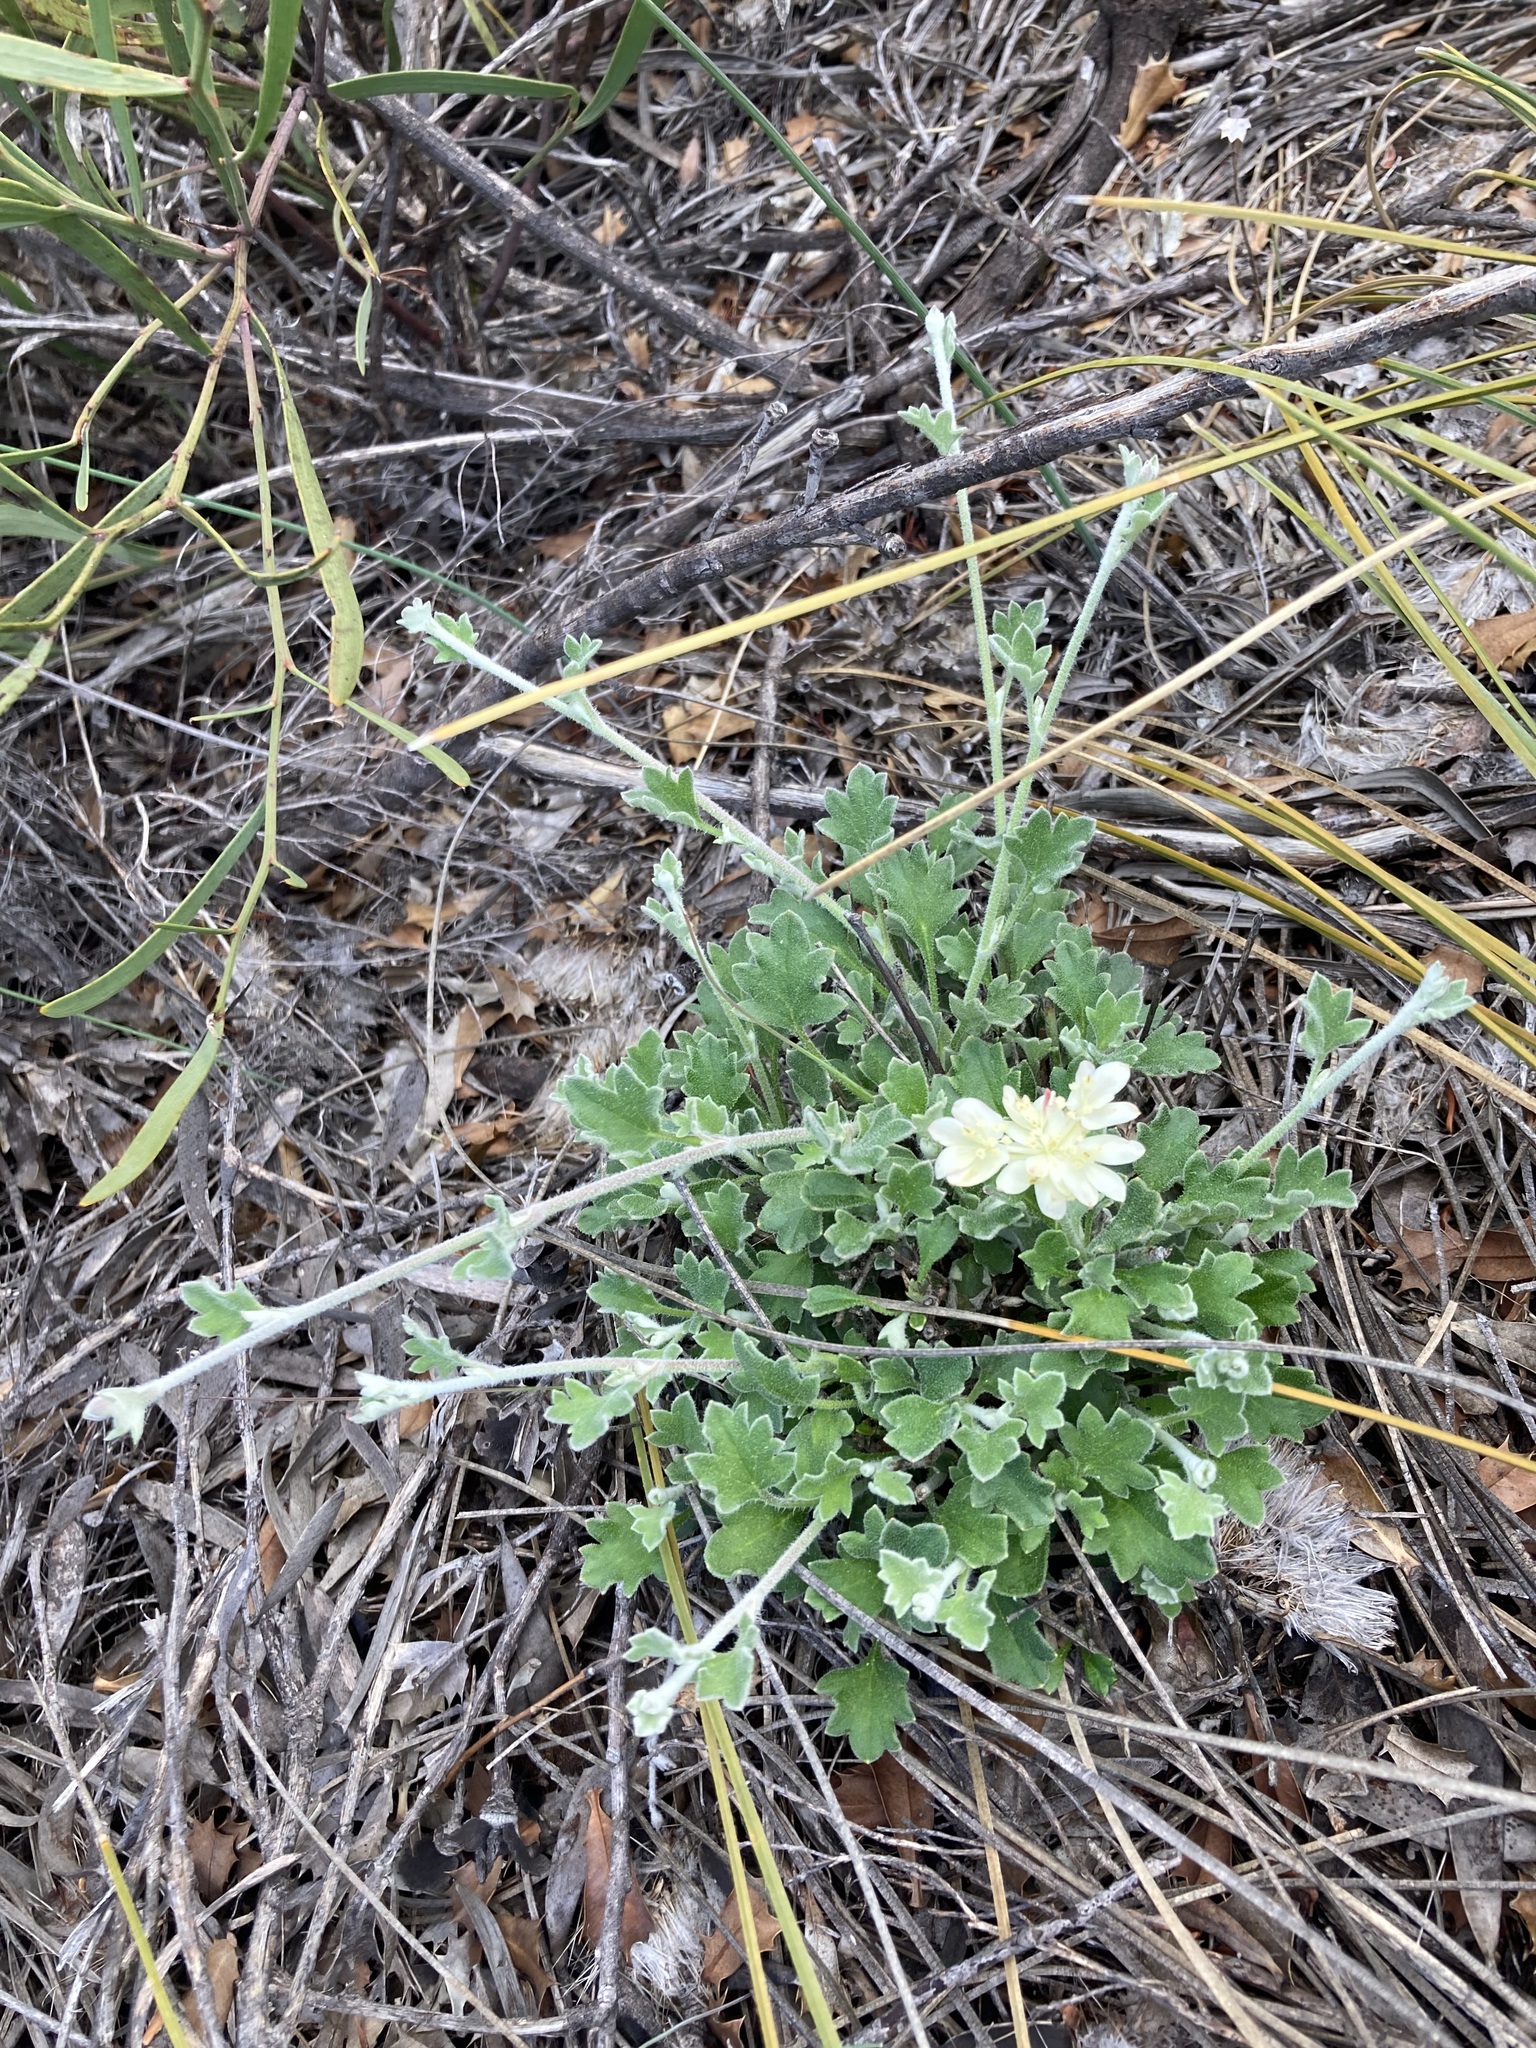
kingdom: Plantae
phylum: Tracheophyta
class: Magnoliopsida
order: Apiales
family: Apiaceae
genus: Xanthosia
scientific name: Xanthosia tomentosa
